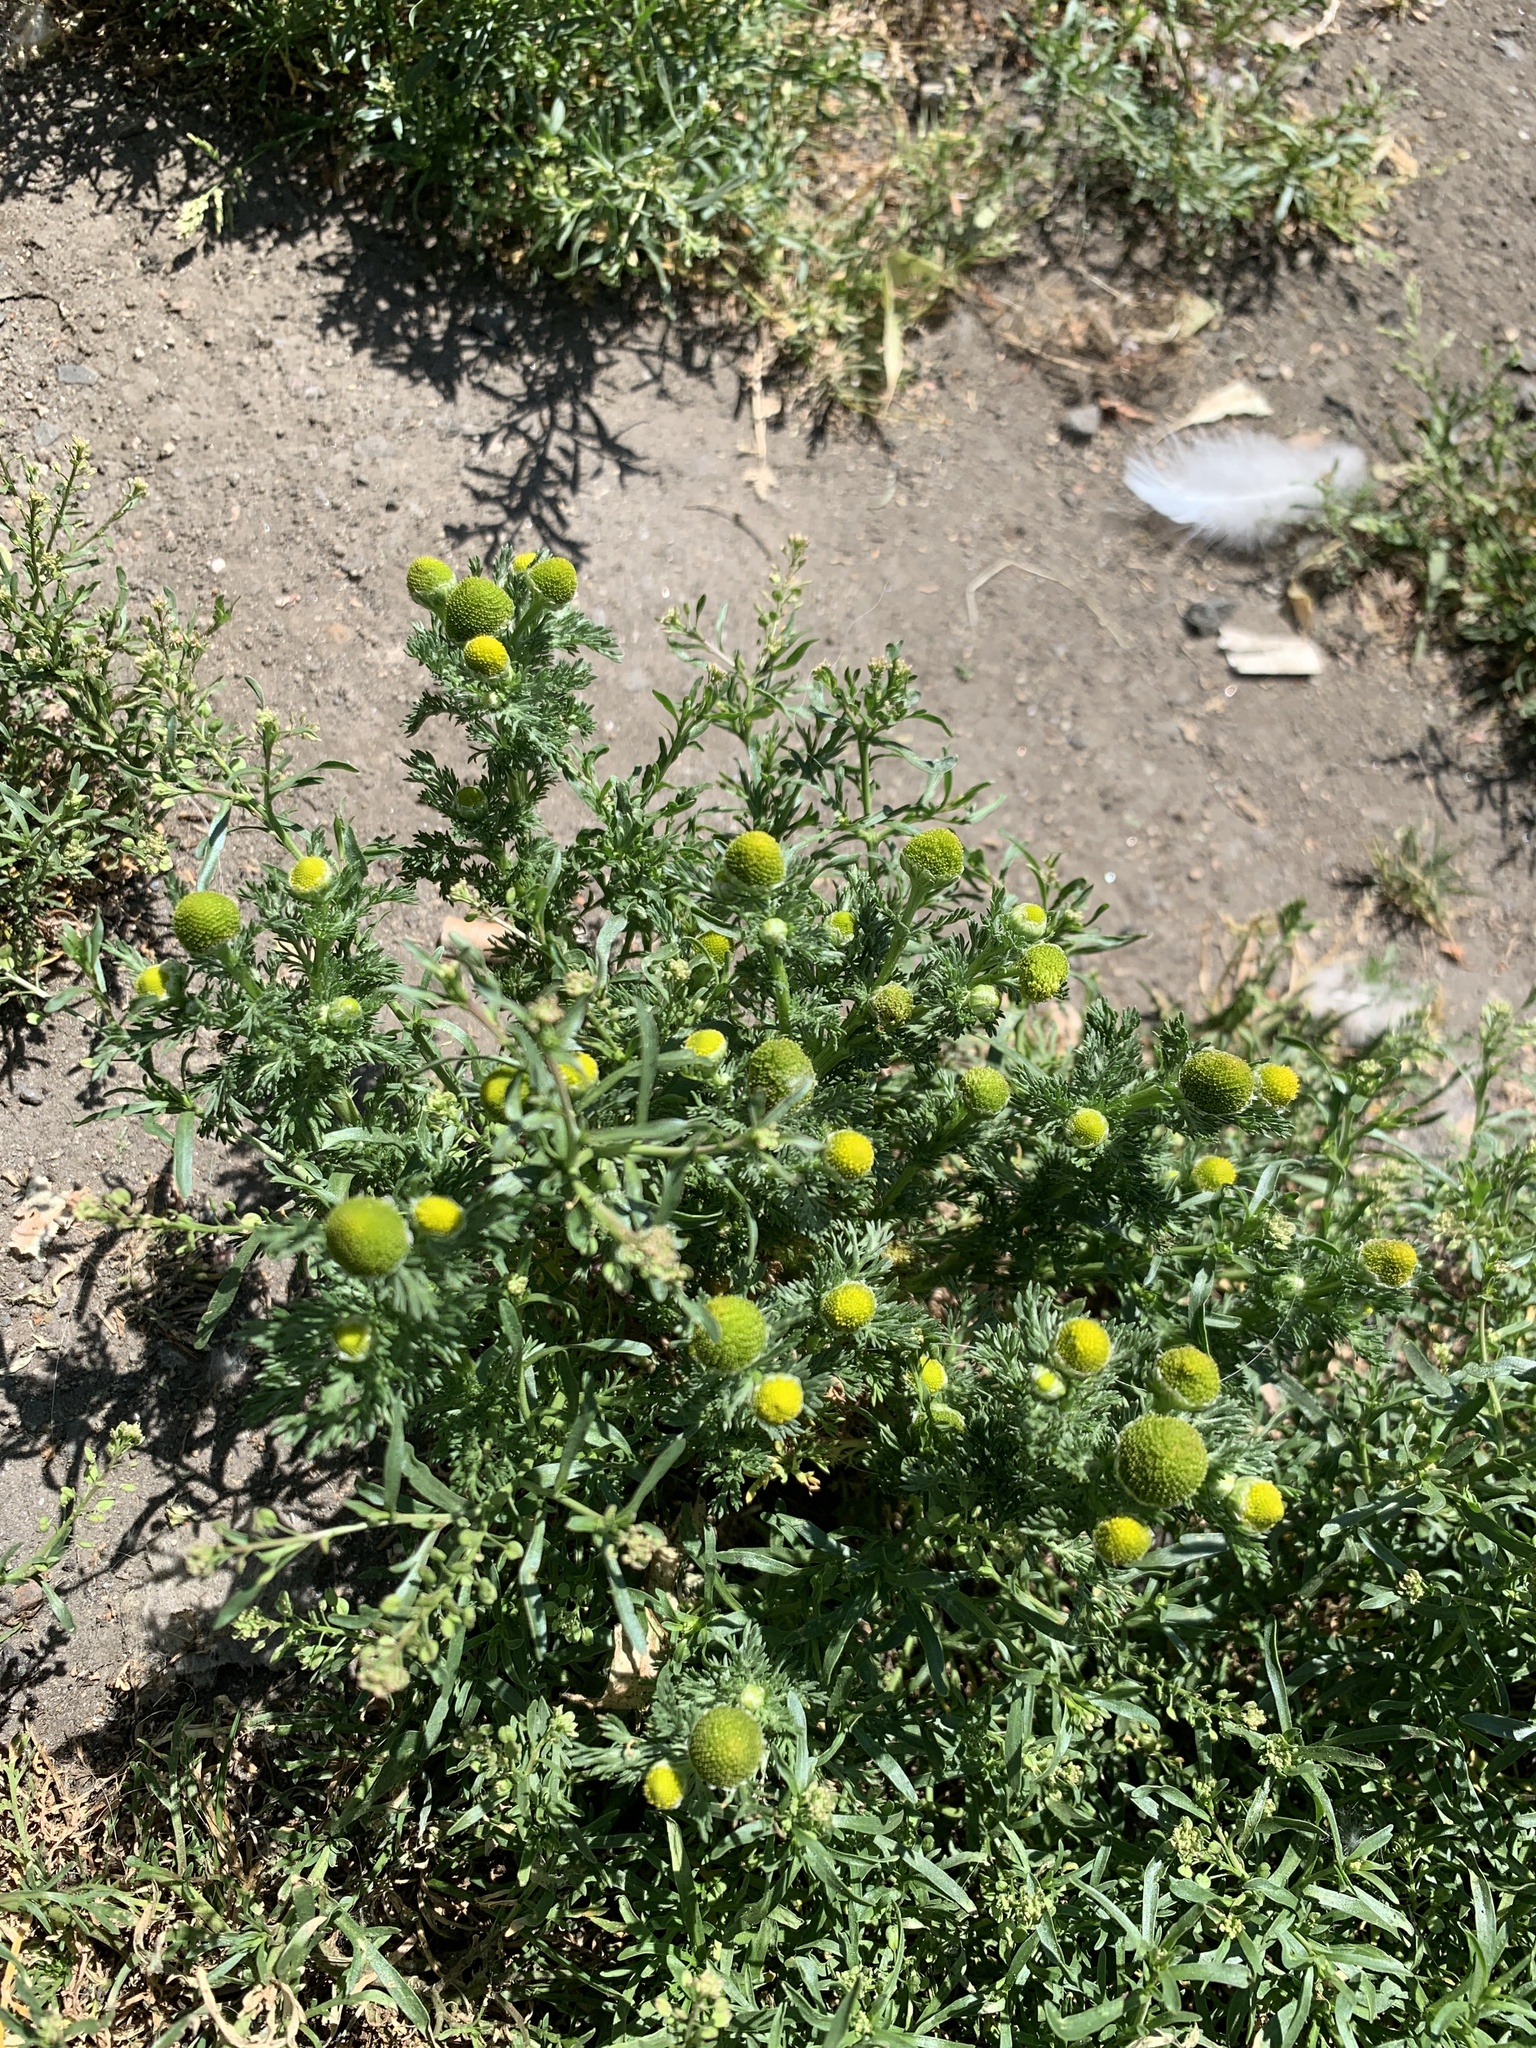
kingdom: Plantae
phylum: Tracheophyta
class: Magnoliopsida
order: Asterales
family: Asteraceae
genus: Matricaria
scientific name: Matricaria discoidea
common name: Disc mayweed
